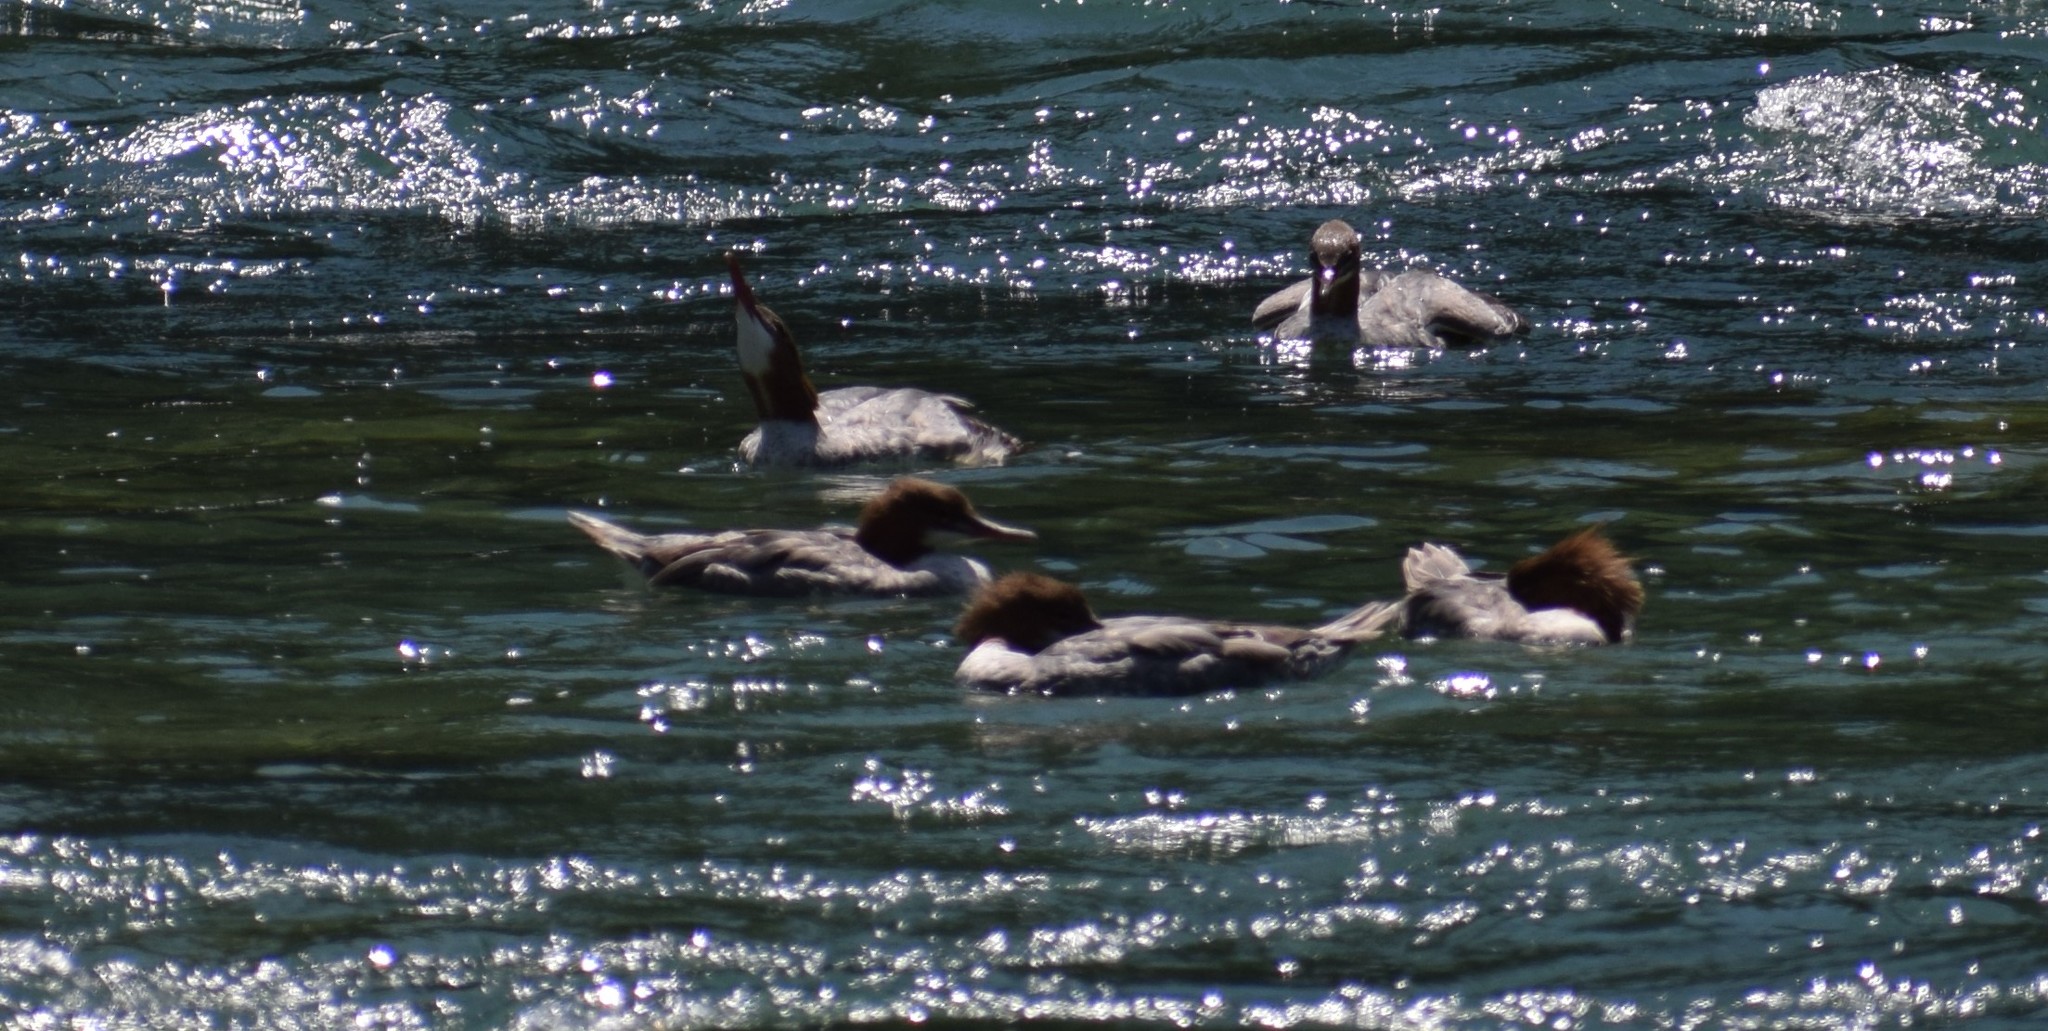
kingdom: Animalia
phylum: Chordata
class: Aves
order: Anseriformes
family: Anatidae
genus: Mergus
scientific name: Mergus merganser
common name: Common merganser
